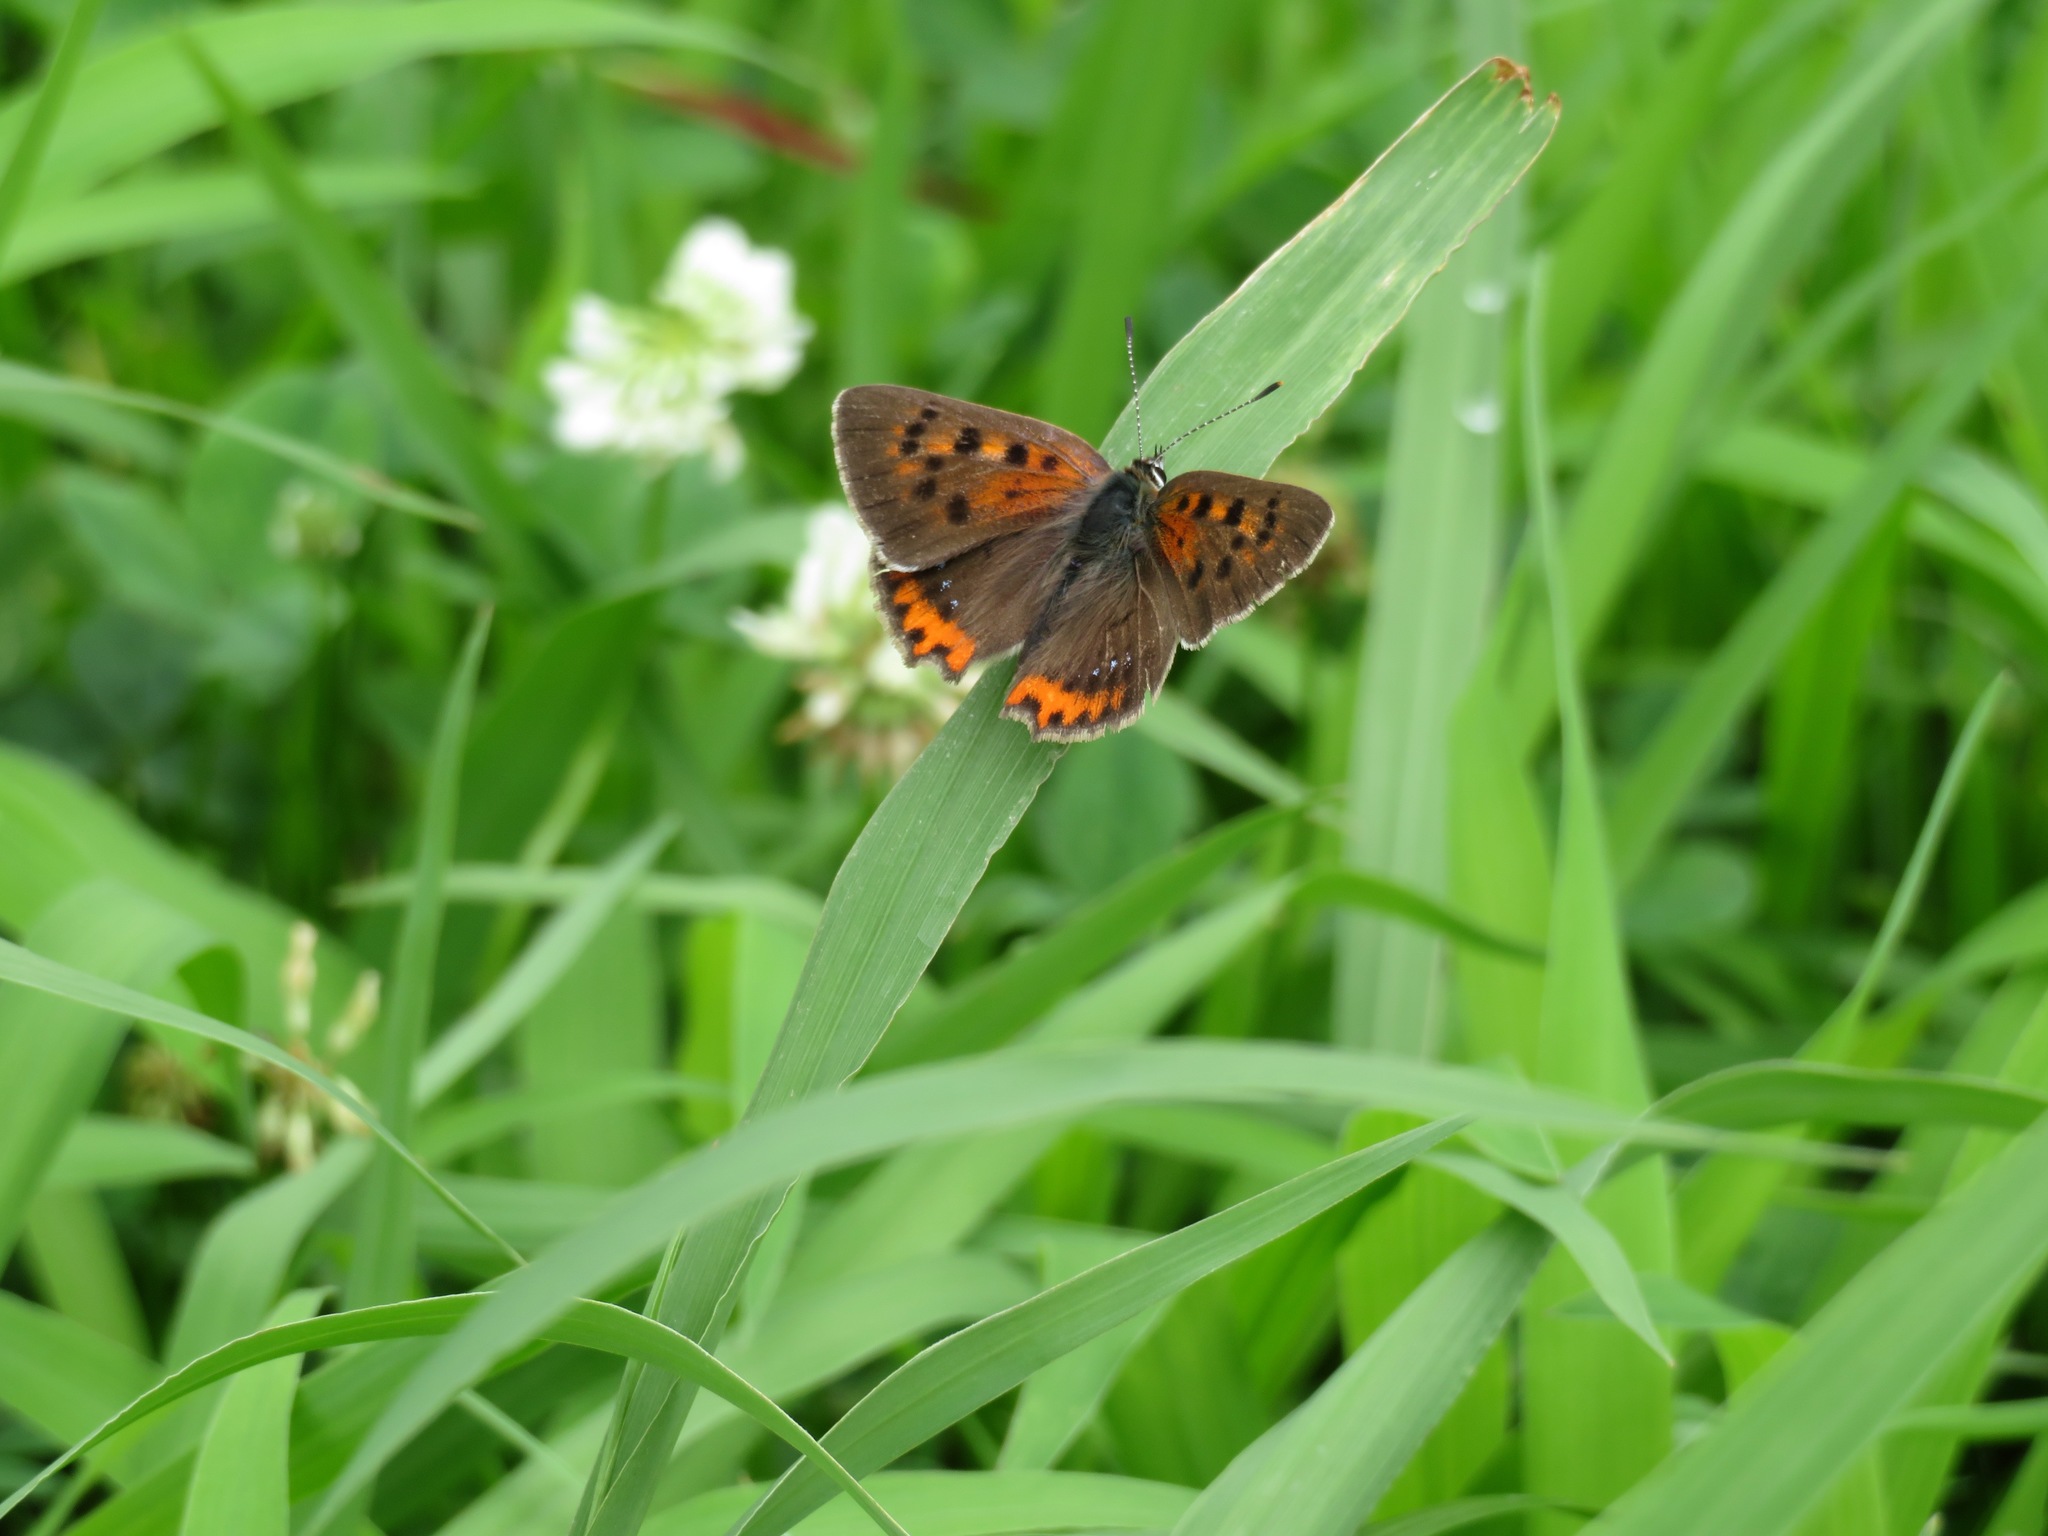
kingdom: Animalia
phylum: Arthropoda
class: Insecta
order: Lepidoptera
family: Lycaenidae
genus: Lycaena
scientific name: Lycaena phlaeas
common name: Small copper
